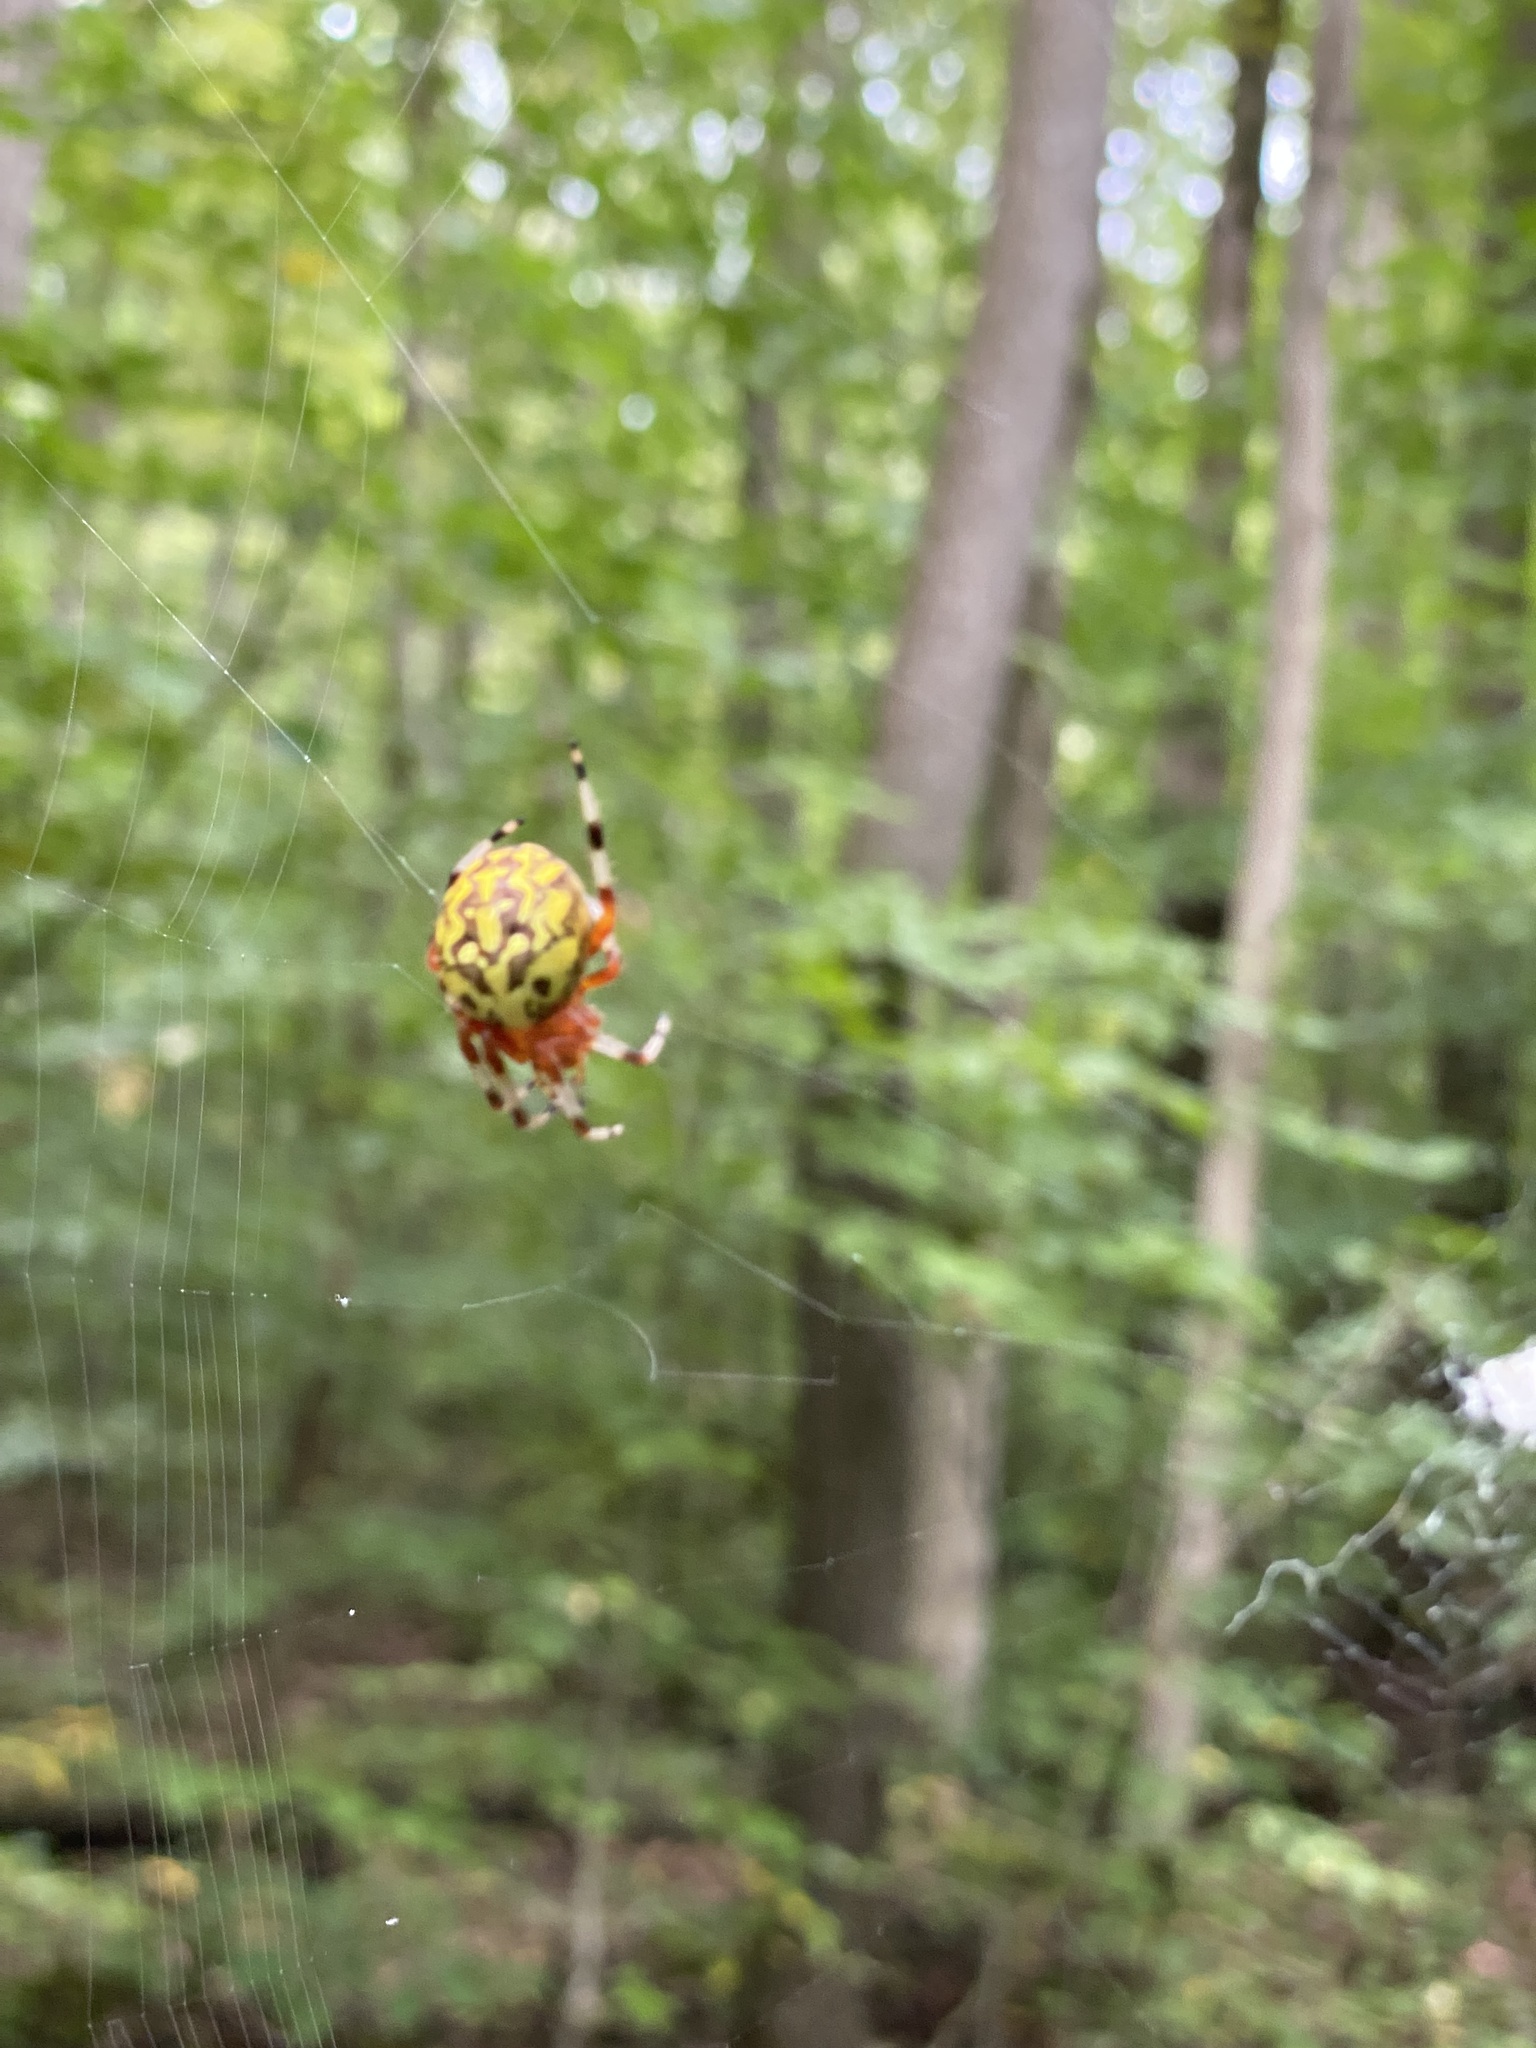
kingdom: Animalia
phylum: Arthropoda
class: Arachnida
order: Araneae
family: Araneidae
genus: Araneus
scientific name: Araneus marmoreus
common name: Marbled orbweaver
